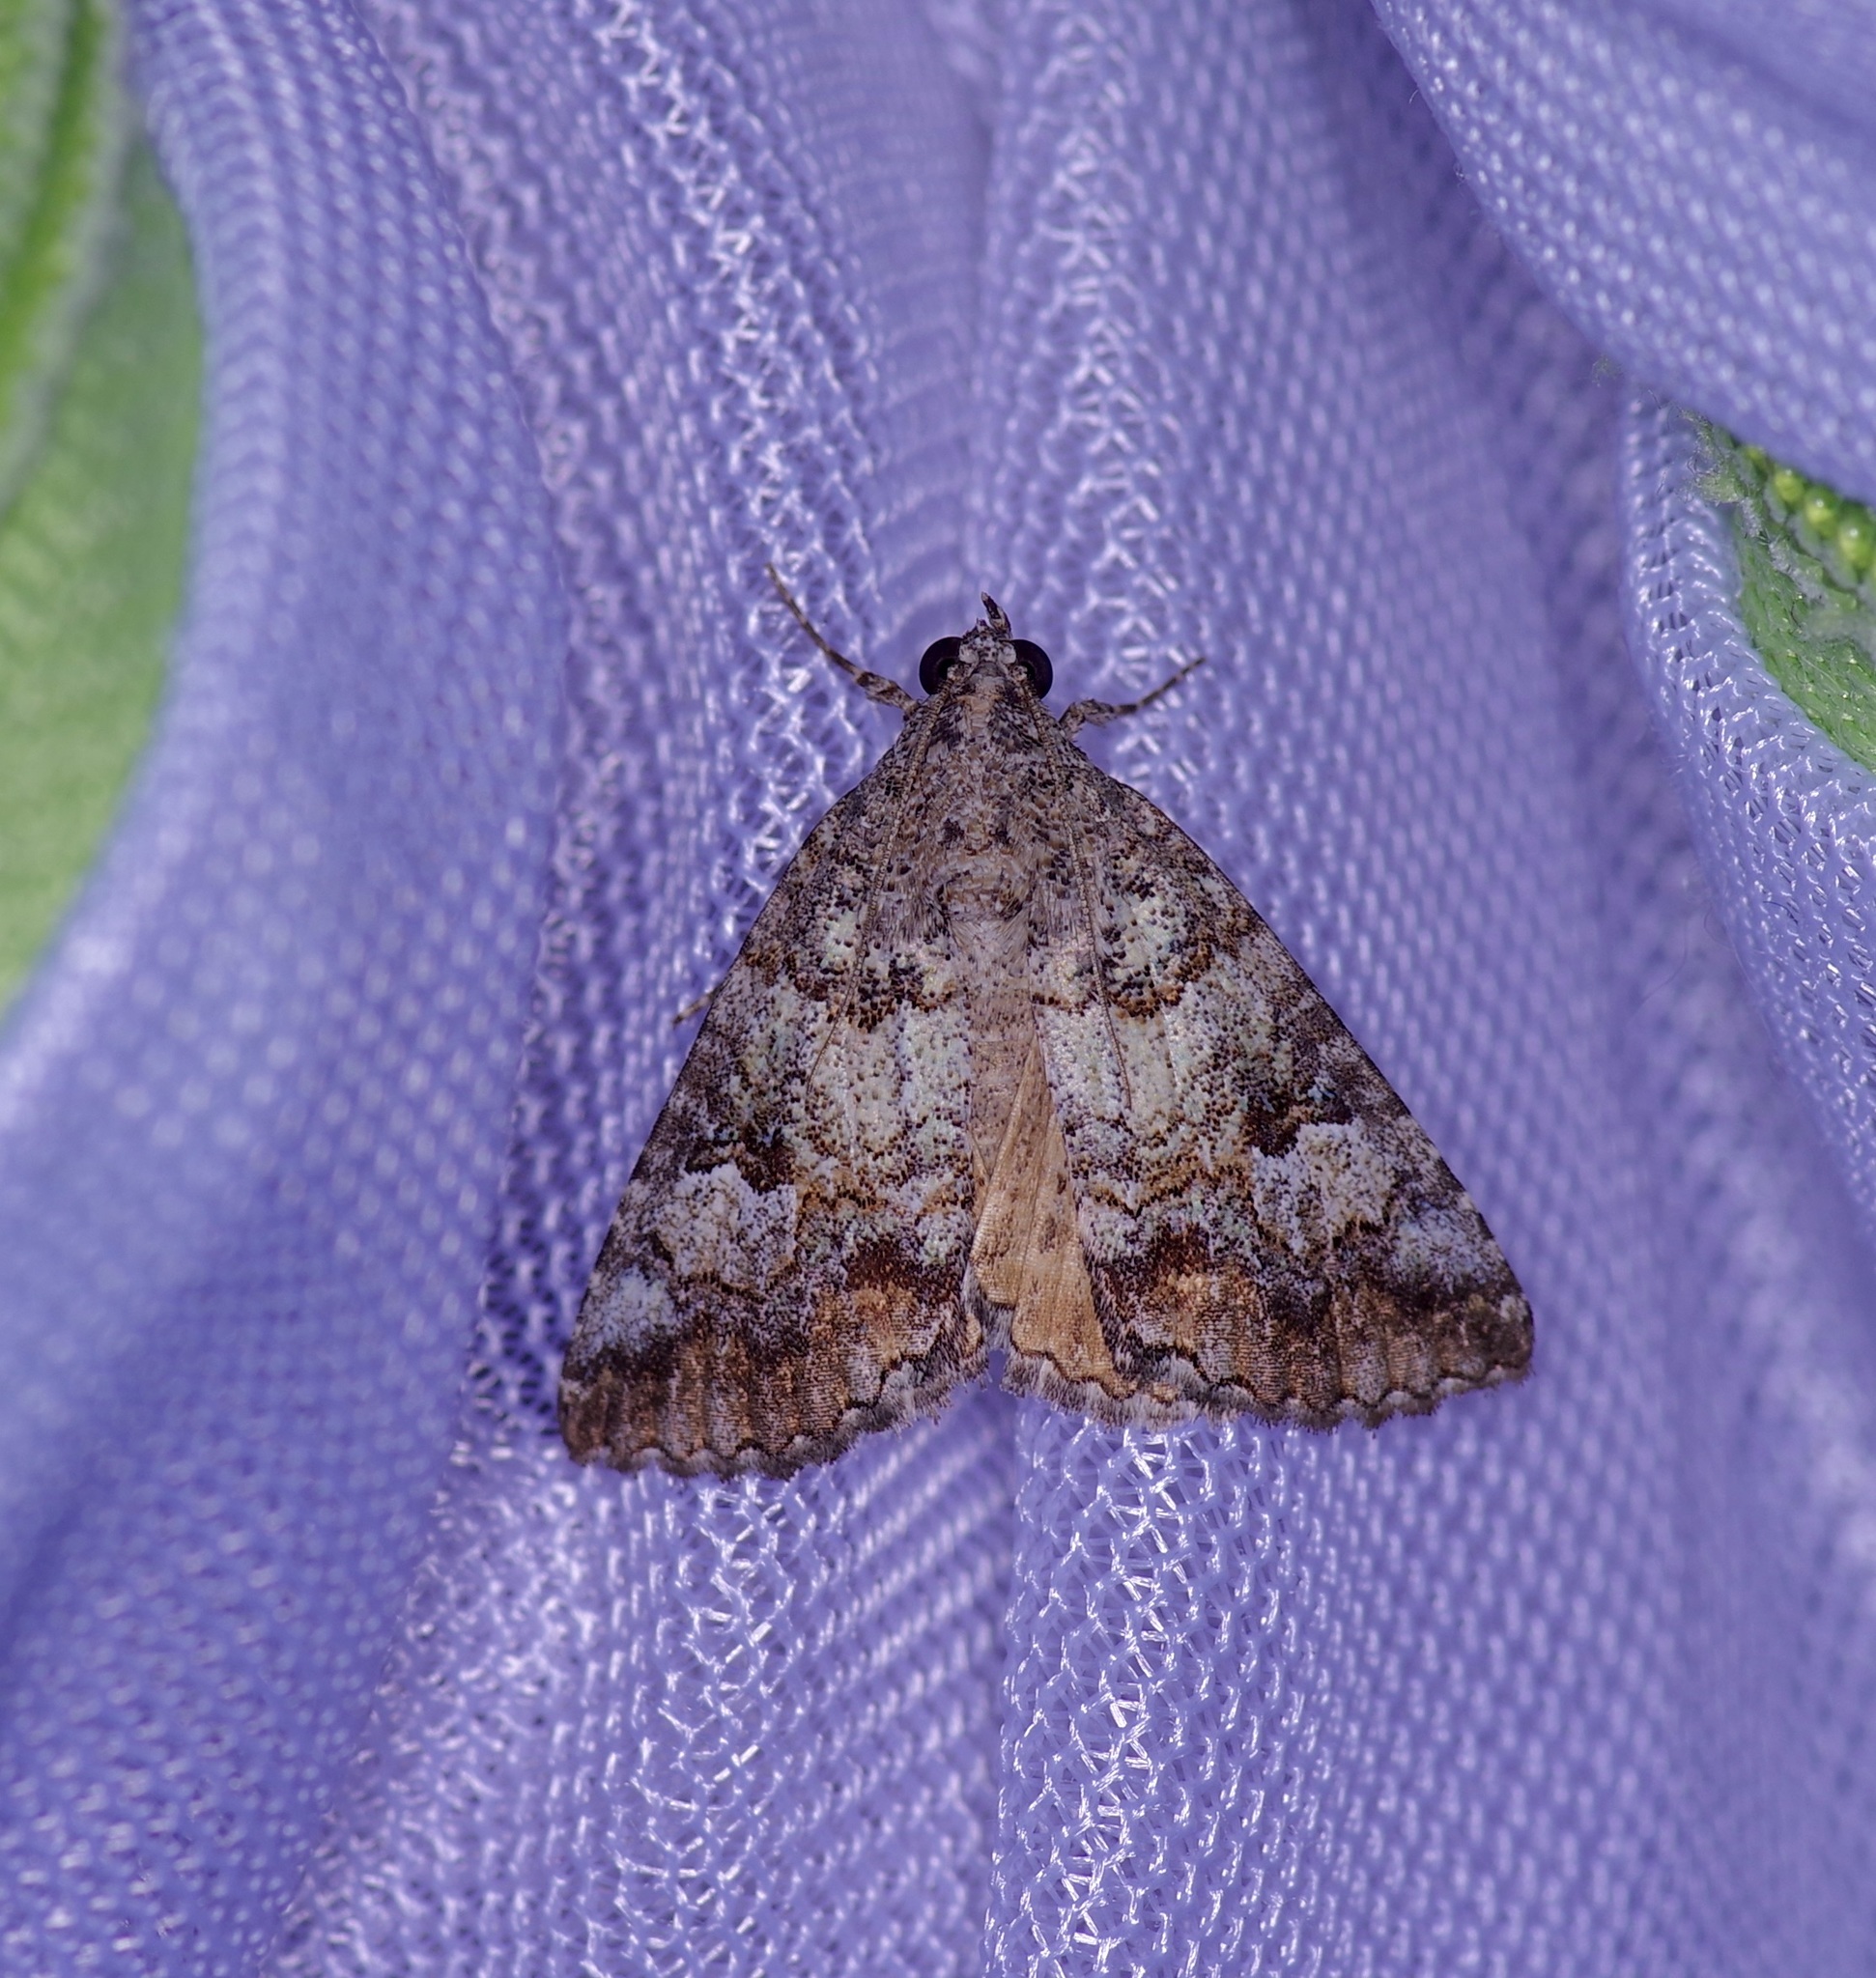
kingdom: Animalia
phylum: Arthropoda
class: Insecta
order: Lepidoptera
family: Erebidae
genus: Eubolina
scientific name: Eubolina impartialis
